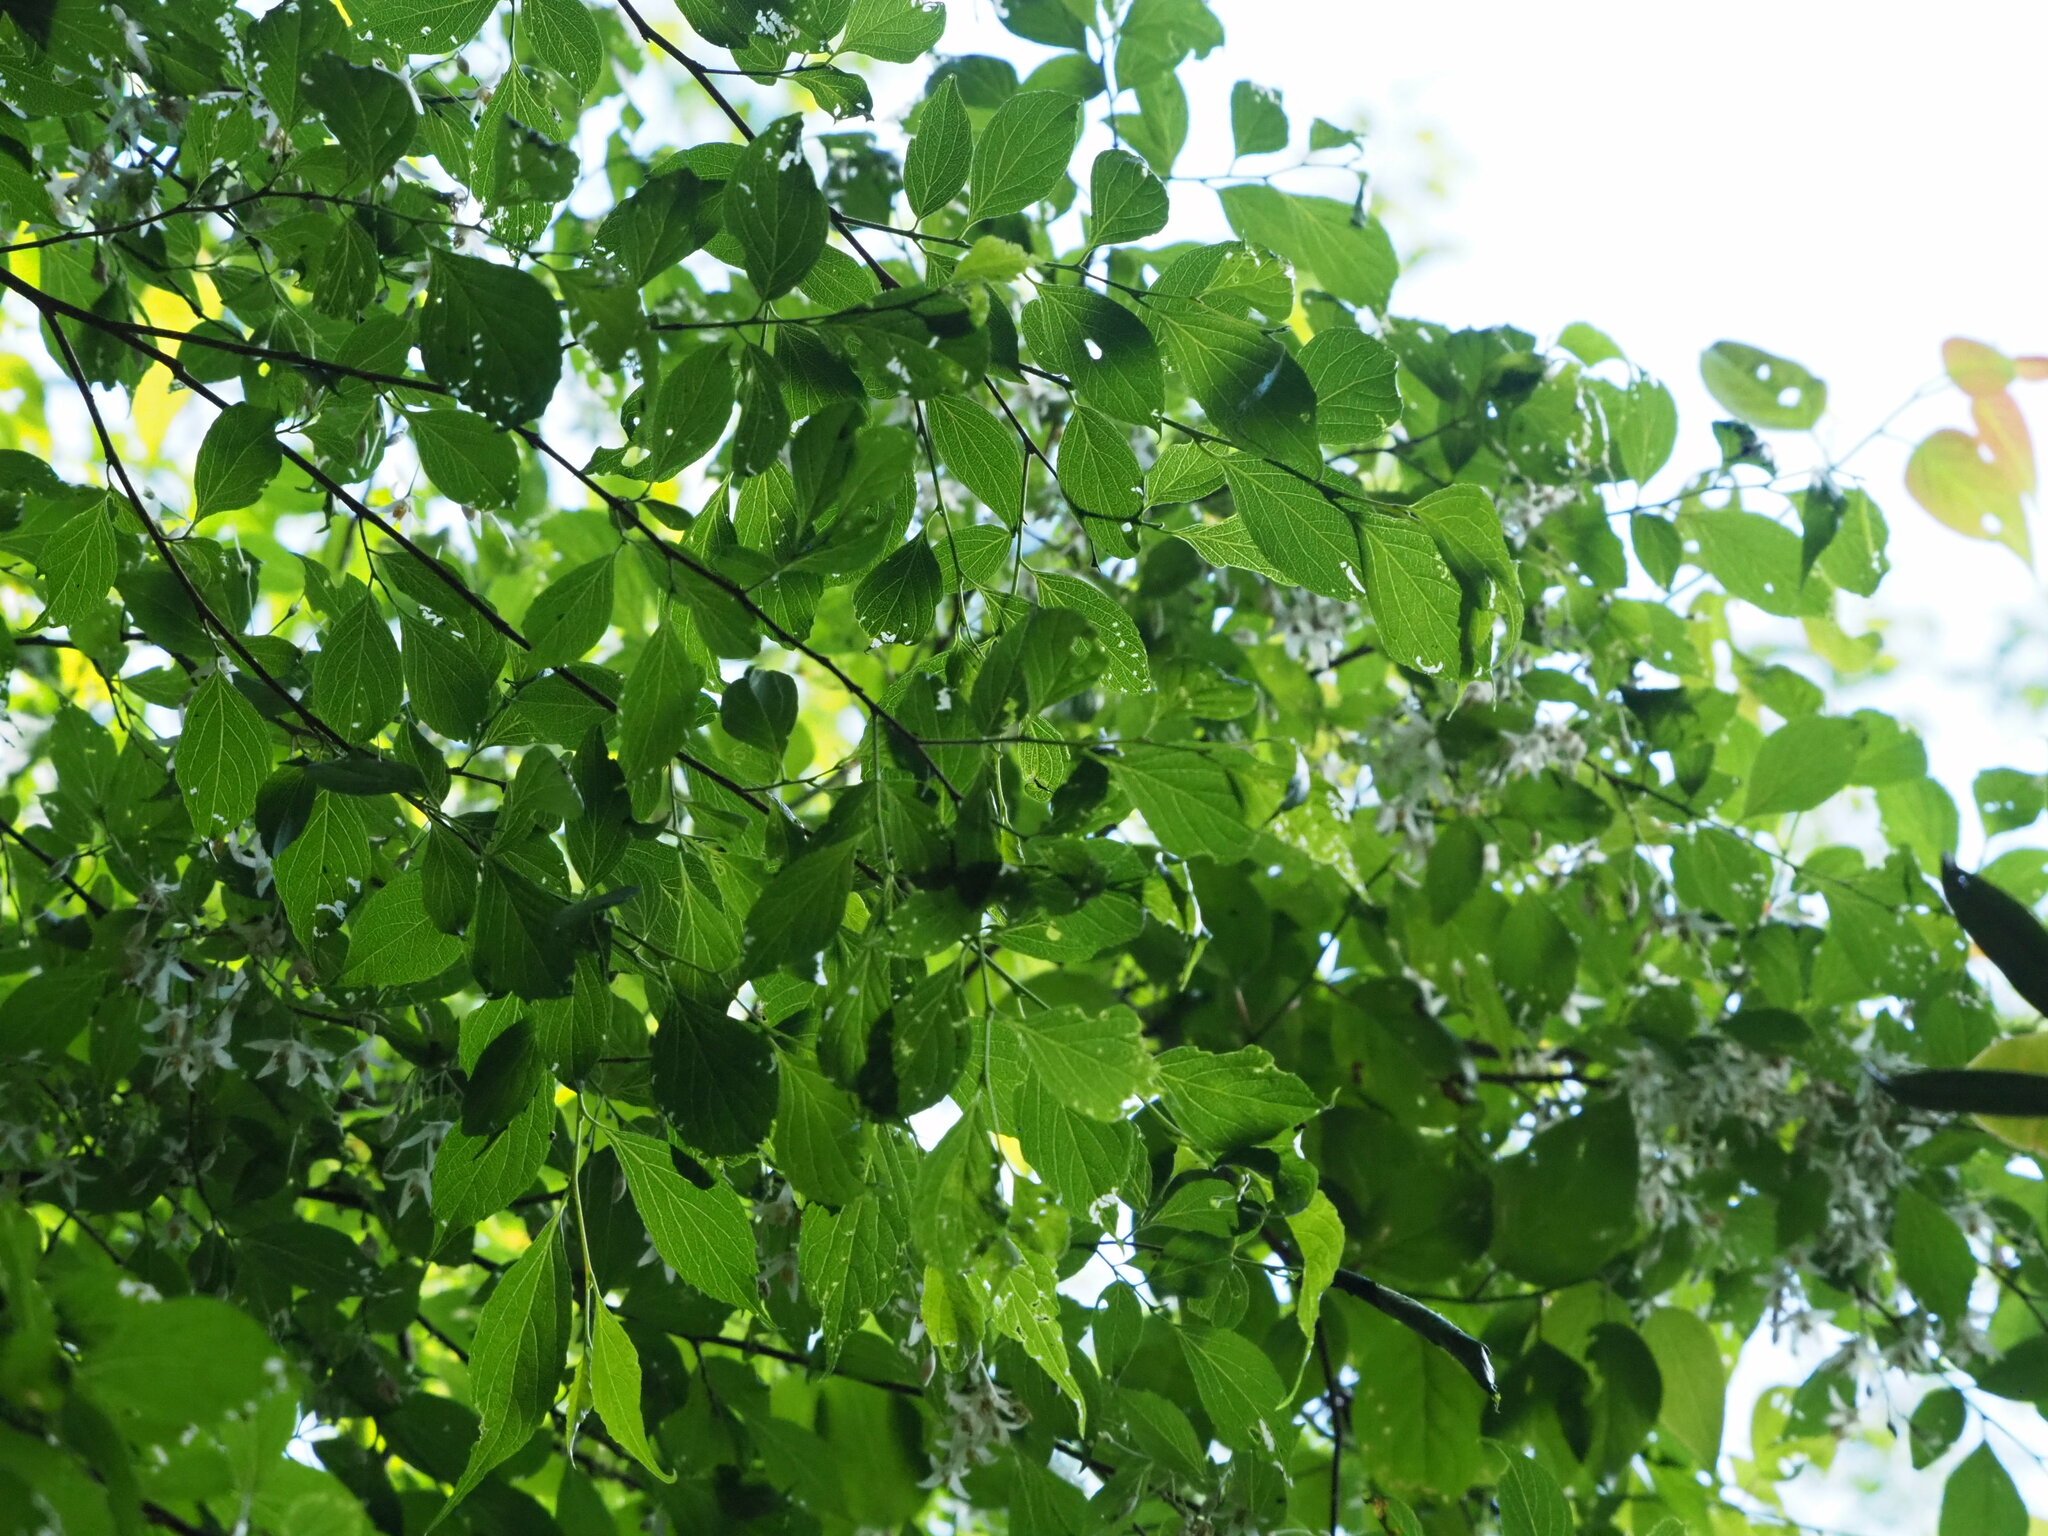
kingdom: Plantae
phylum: Tracheophyta
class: Magnoliopsida
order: Ericales
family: Styracaceae
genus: Styrax
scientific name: Styrax formosanus
